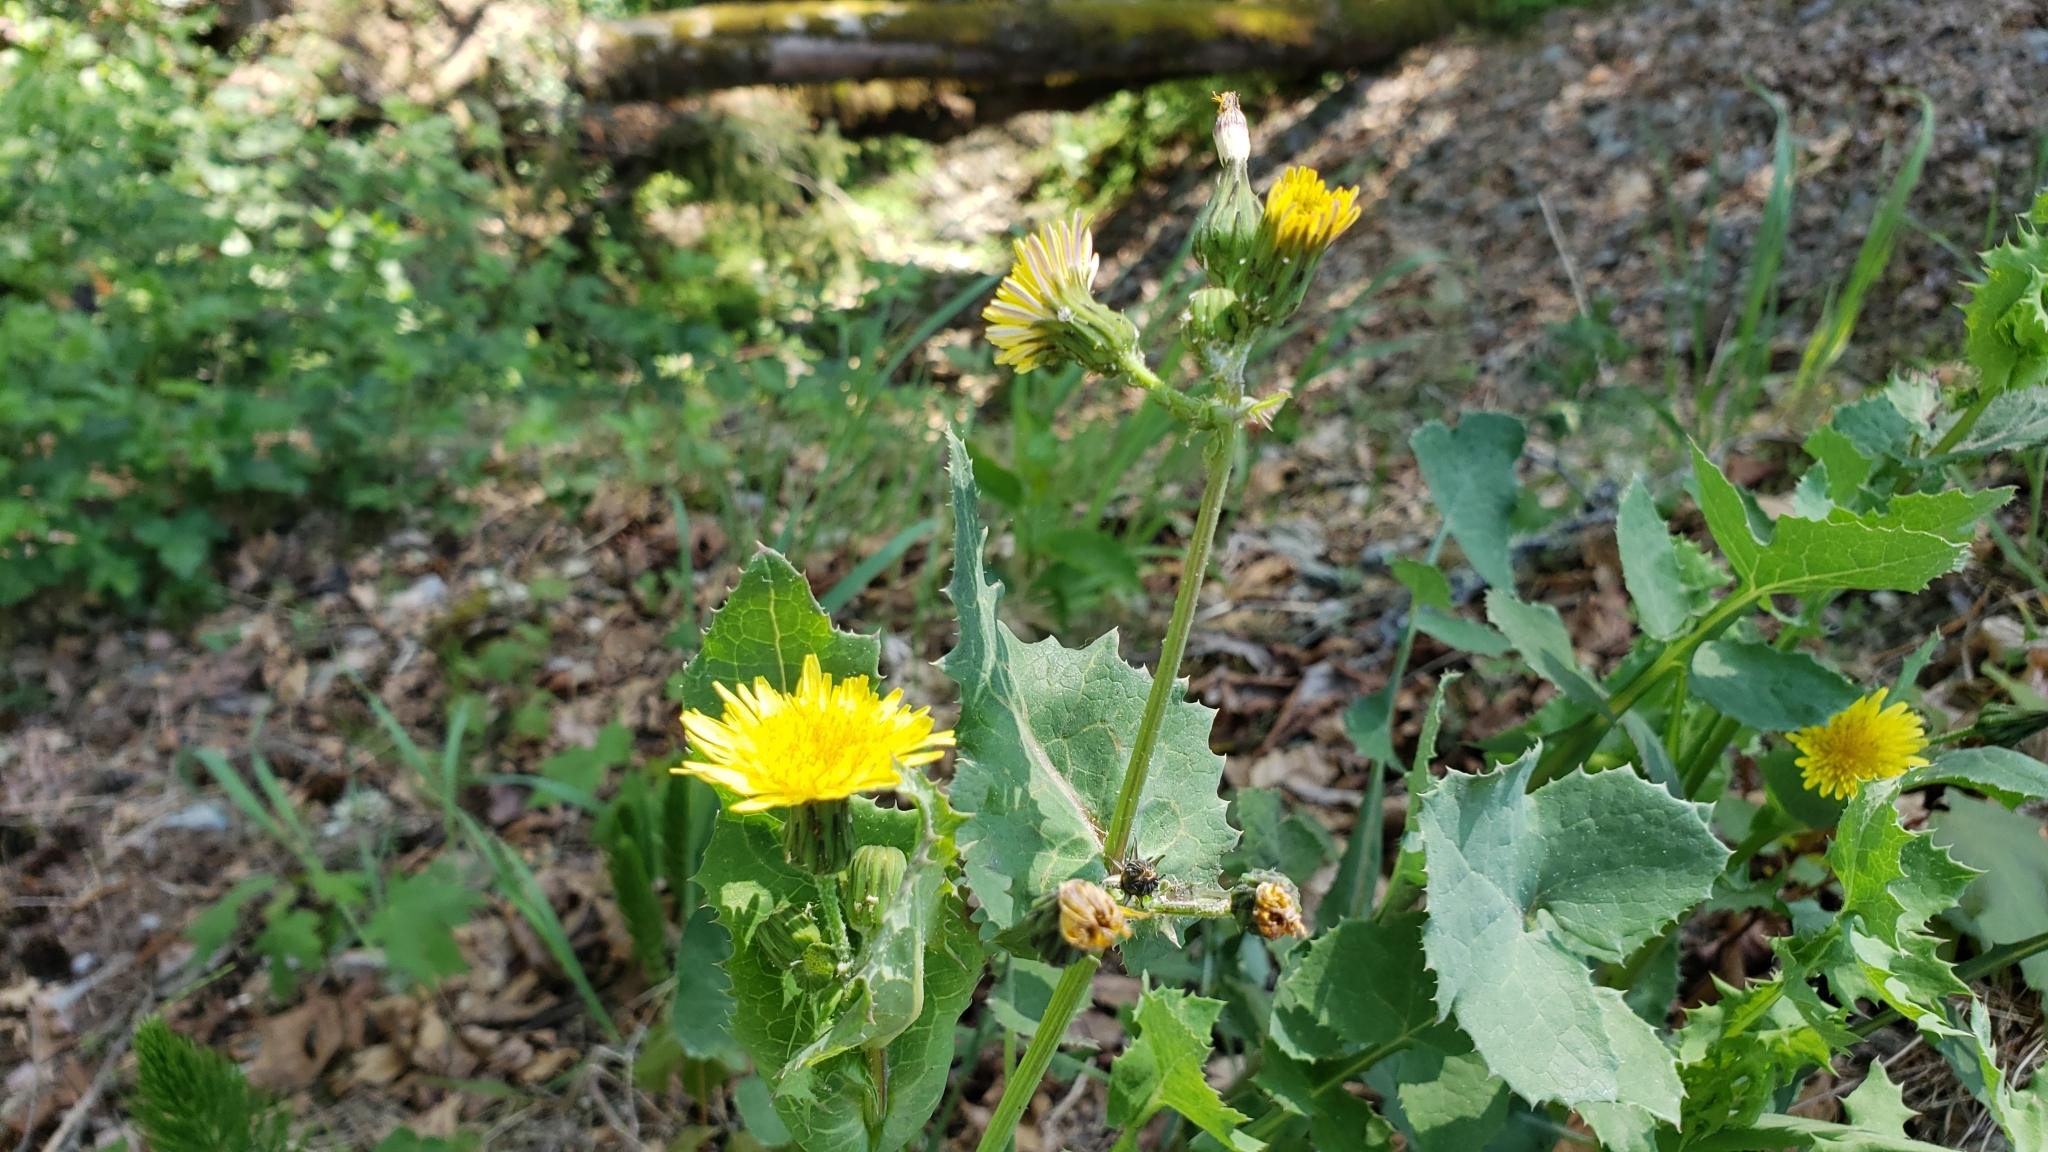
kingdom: Plantae
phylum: Tracheophyta
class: Magnoliopsida
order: Asterales
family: Asteraceae
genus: Sonchus
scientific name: Sonchus oleraceus
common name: Common sowthistle
